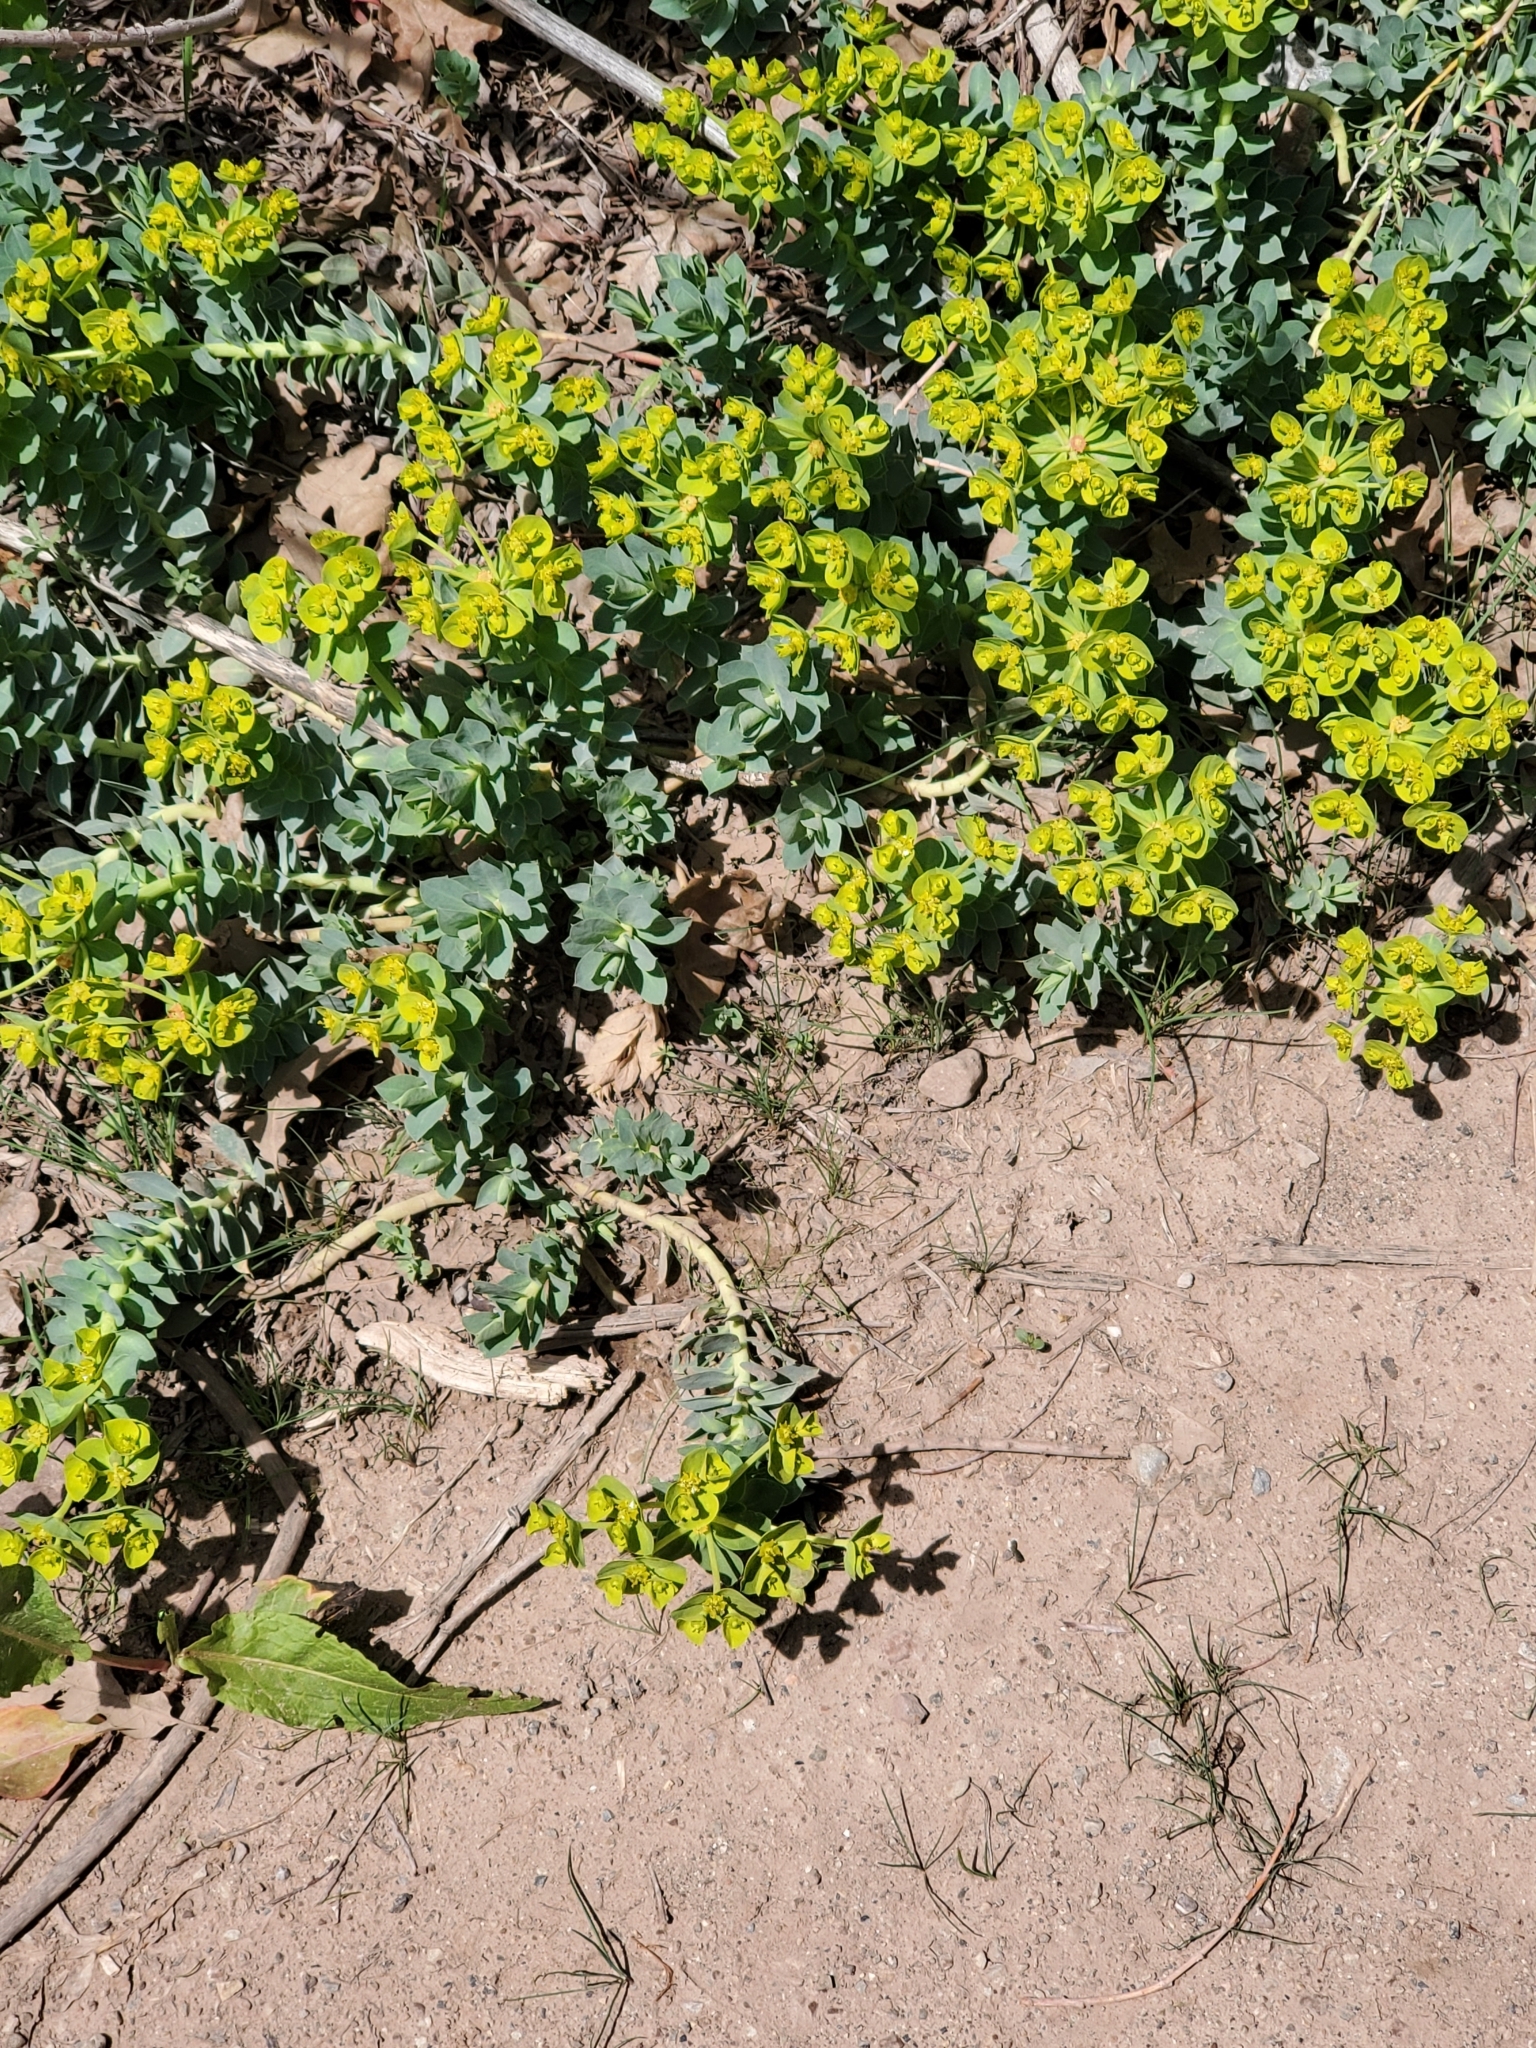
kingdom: Plantae
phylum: Tracheophyta
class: Magnoliopsida
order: Malpighiales
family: Euphorbiaceae
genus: Euphorbia
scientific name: Euphorbia myrsinites
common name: Myrtle spurge
